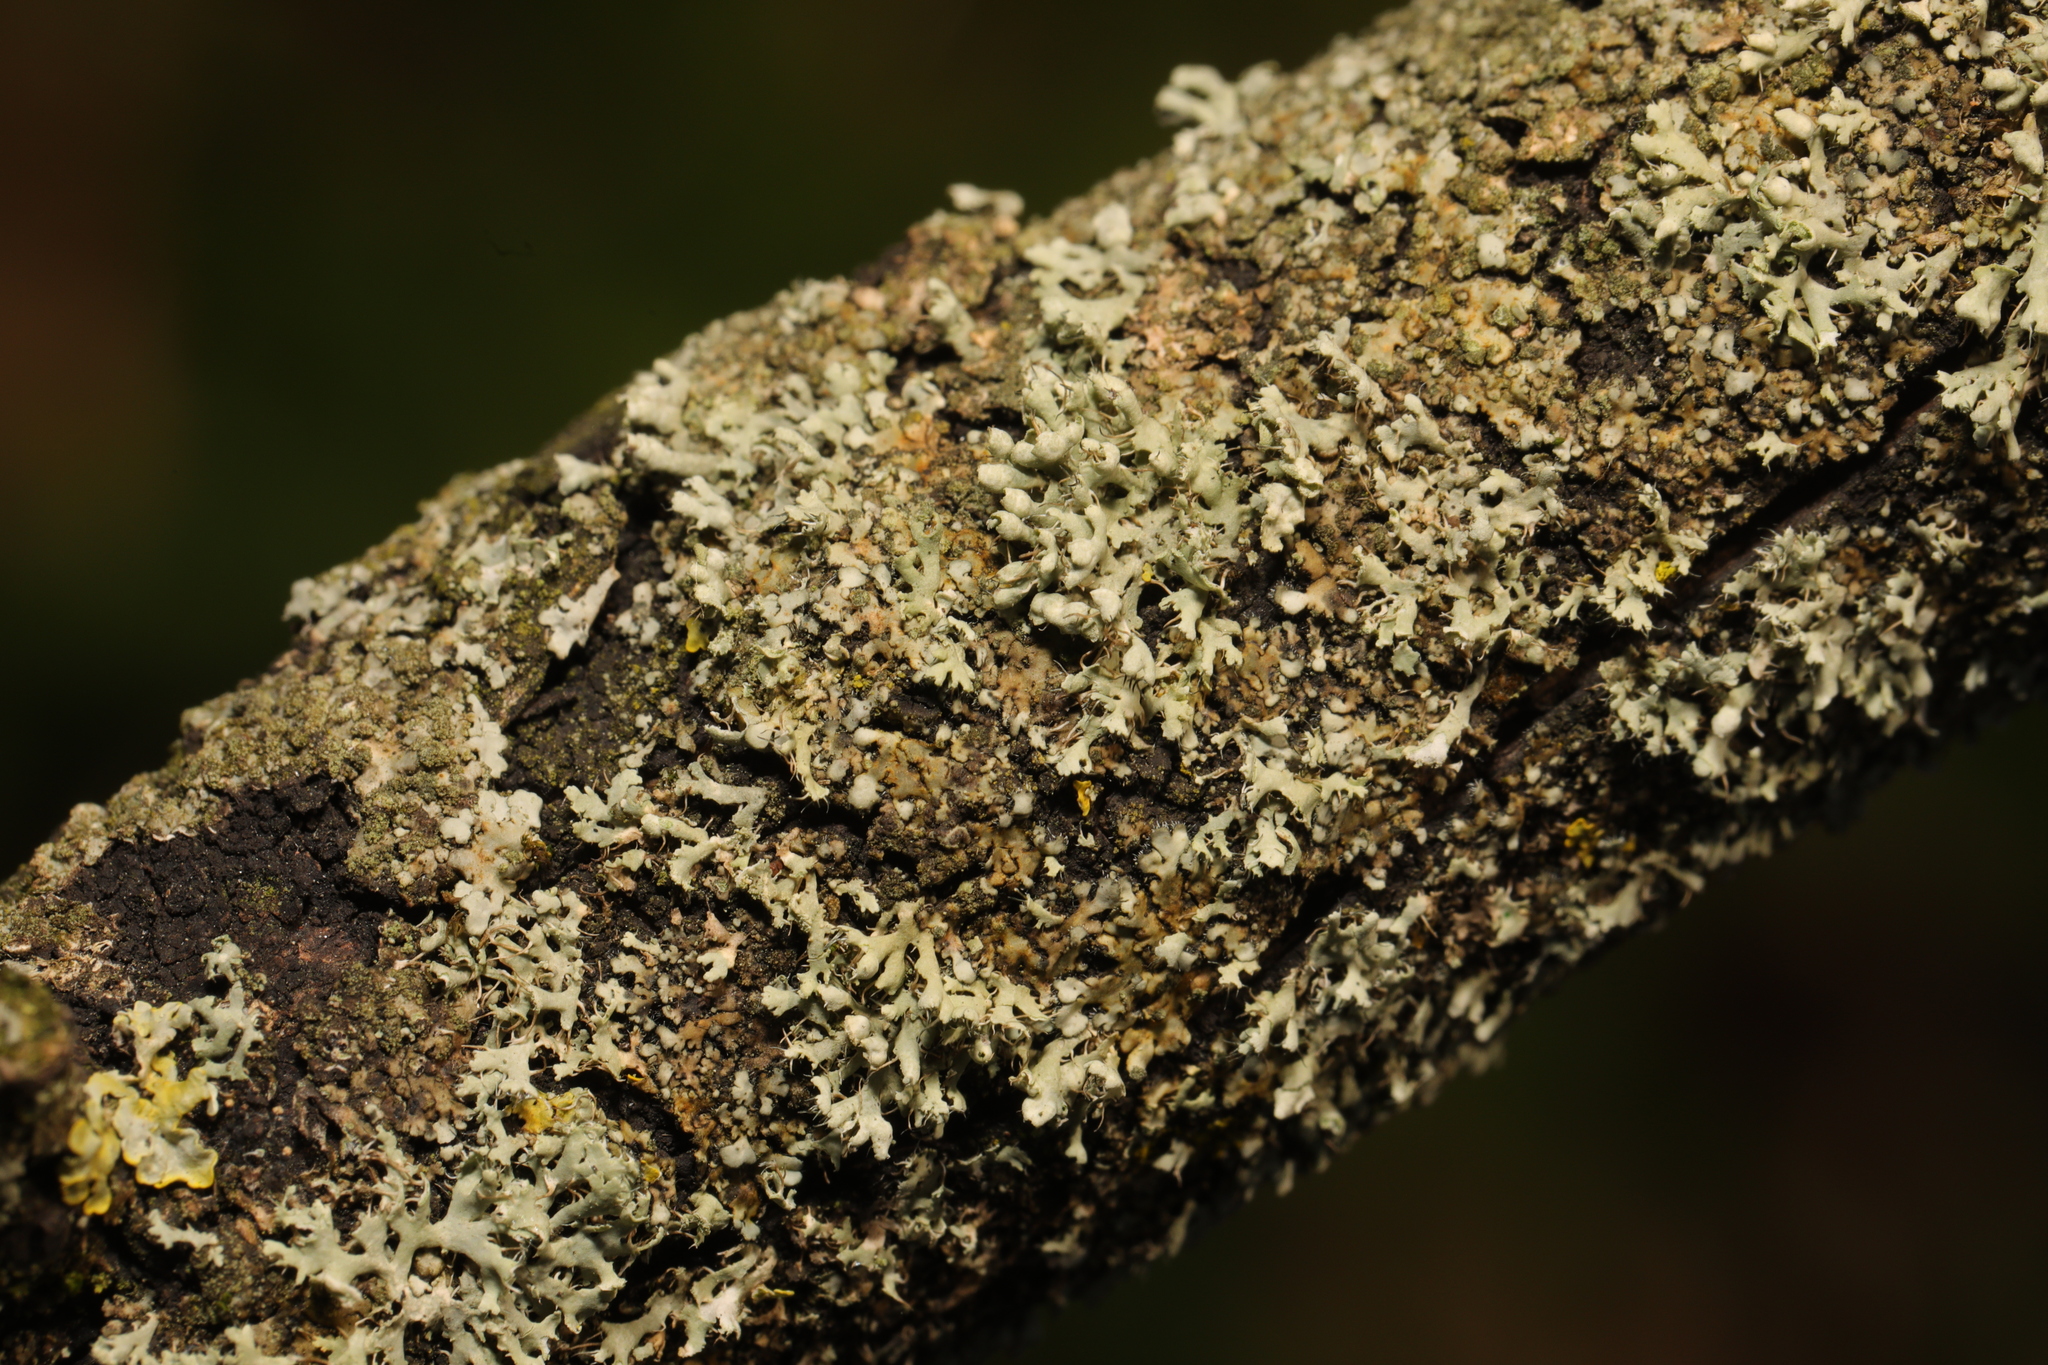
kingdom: Fungi
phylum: Ascomycota
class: Lecanoromycetes
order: Caliciales
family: Physciaceae
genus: Physcia
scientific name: Physcia adscendens
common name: Hooded rosette lichen
